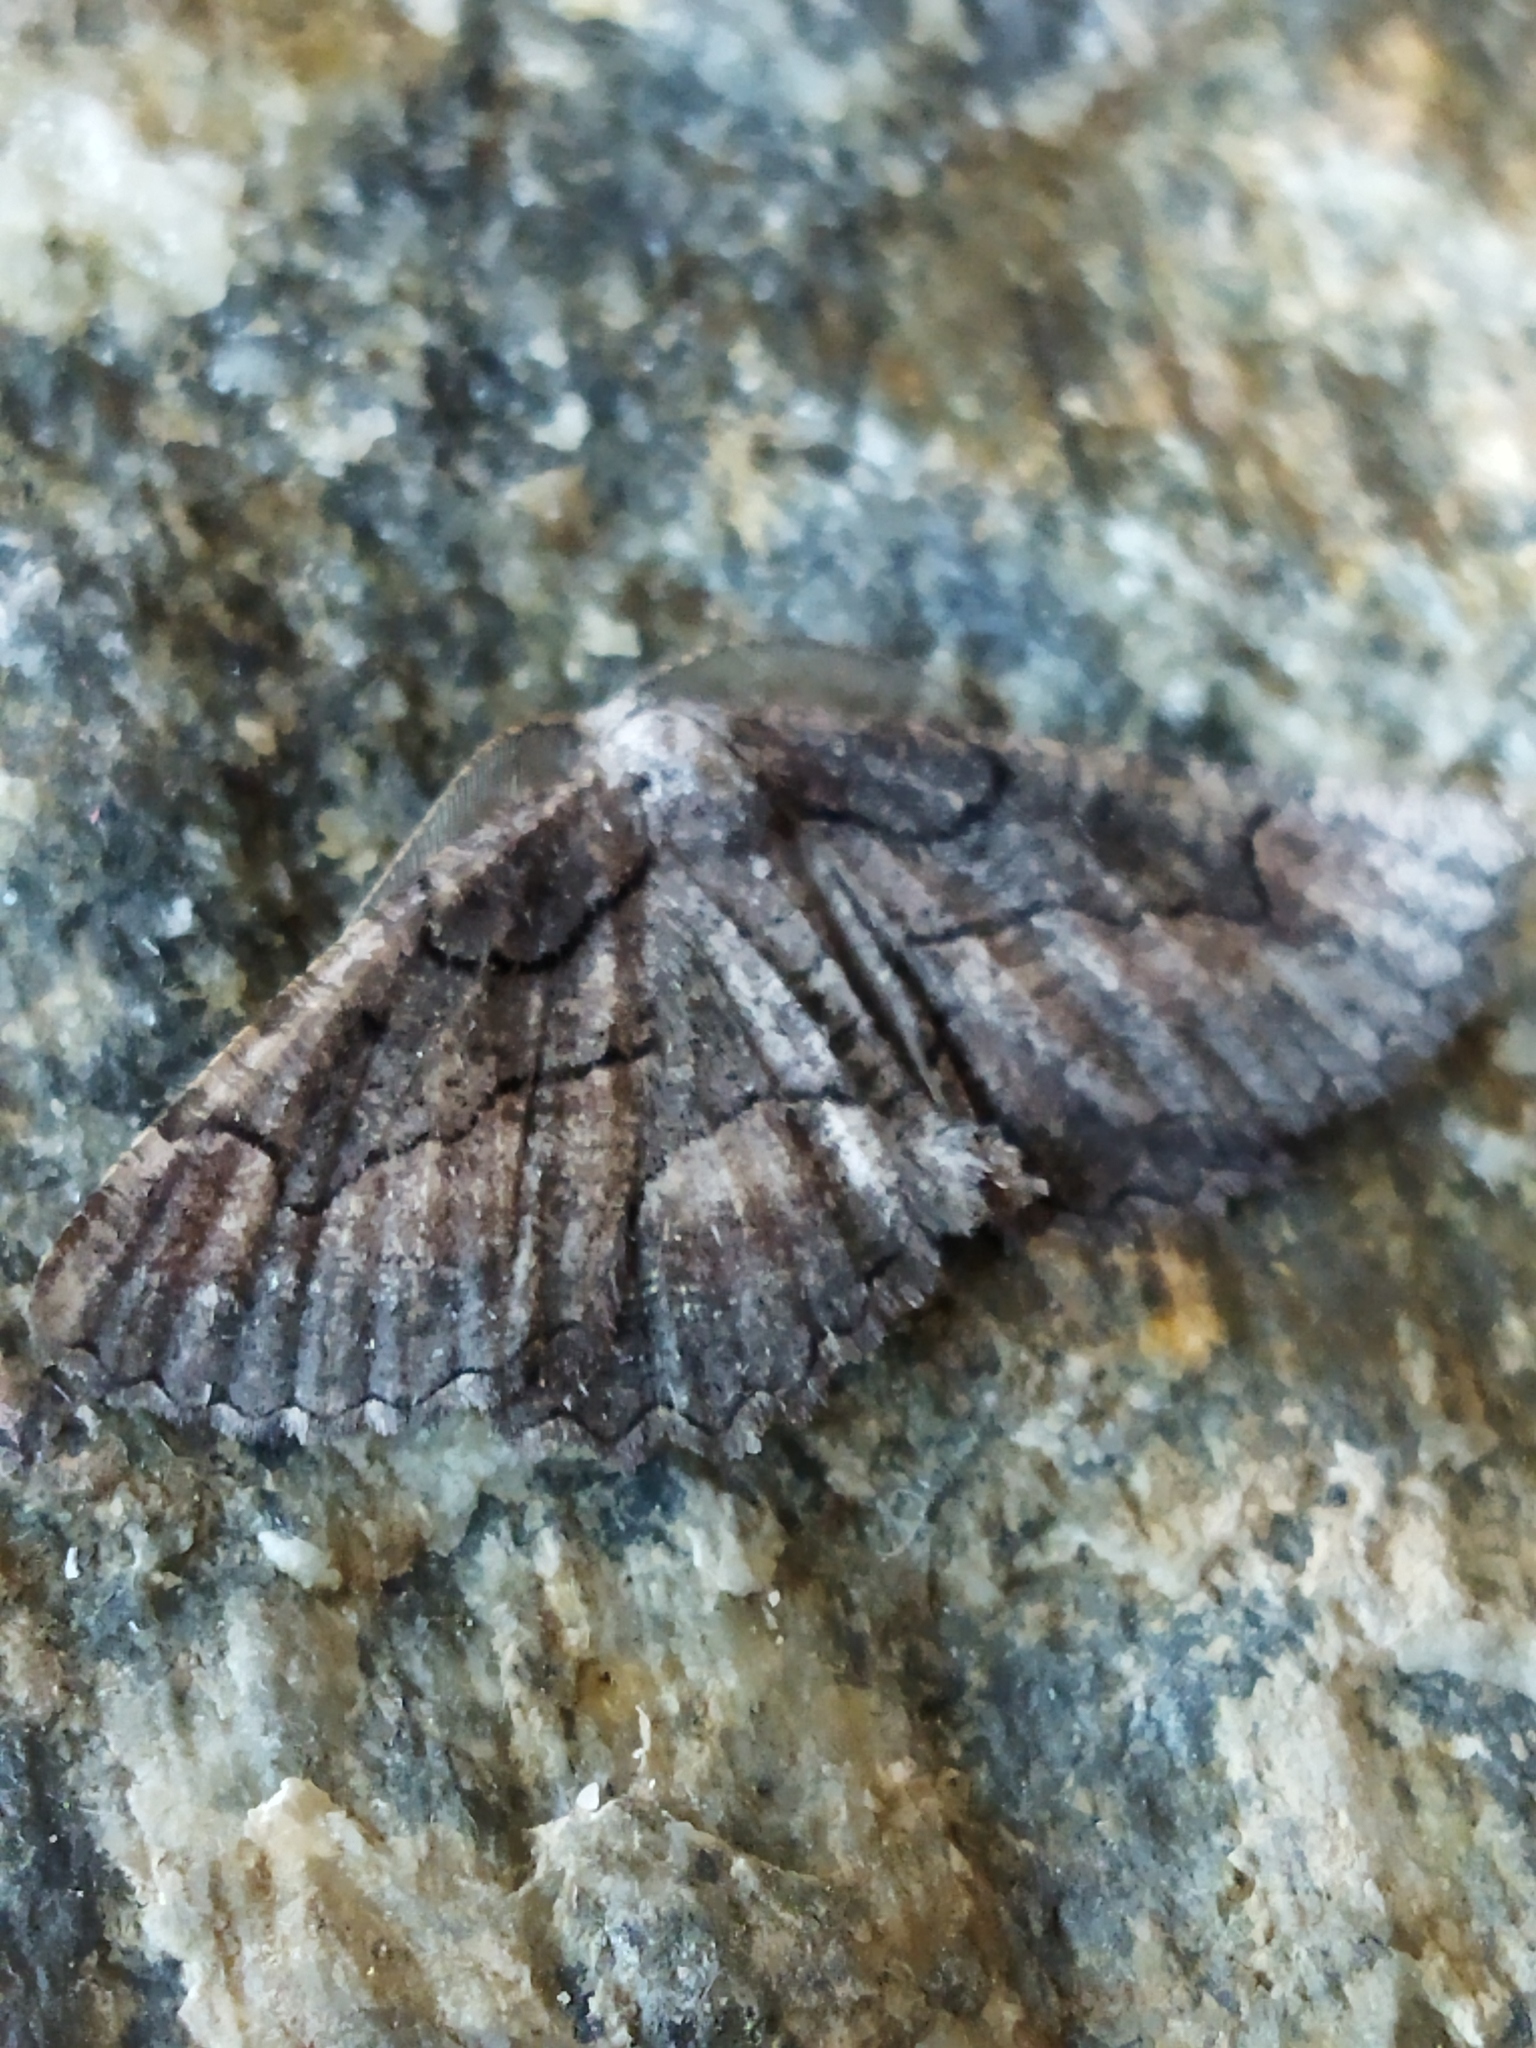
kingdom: Animalia
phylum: Arthropoda
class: Insecta
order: Lepidoptera
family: Geometridae
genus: Nychiodes
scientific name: Nychiodes waltheri
